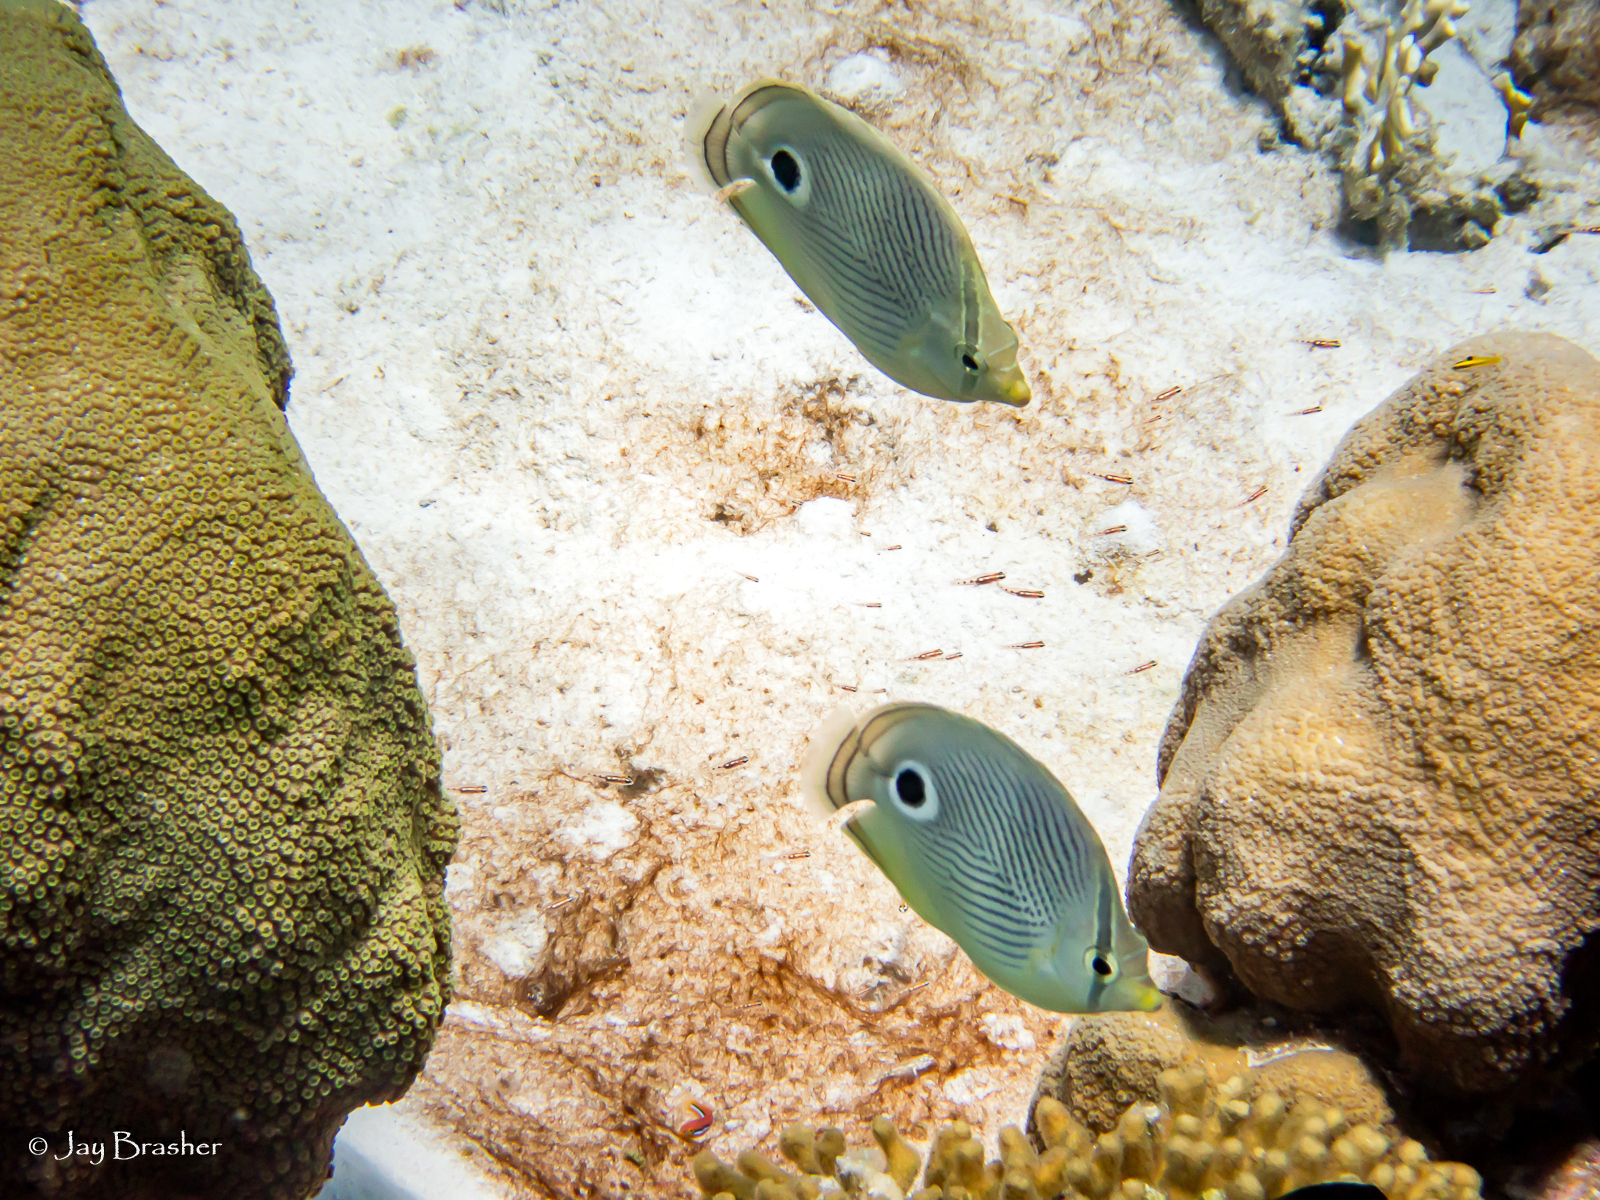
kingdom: Animalia
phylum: Chordata
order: Perciformes
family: Chaetodontidae
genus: Chaetodon
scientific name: Chaetodon capistratus
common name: Kete
